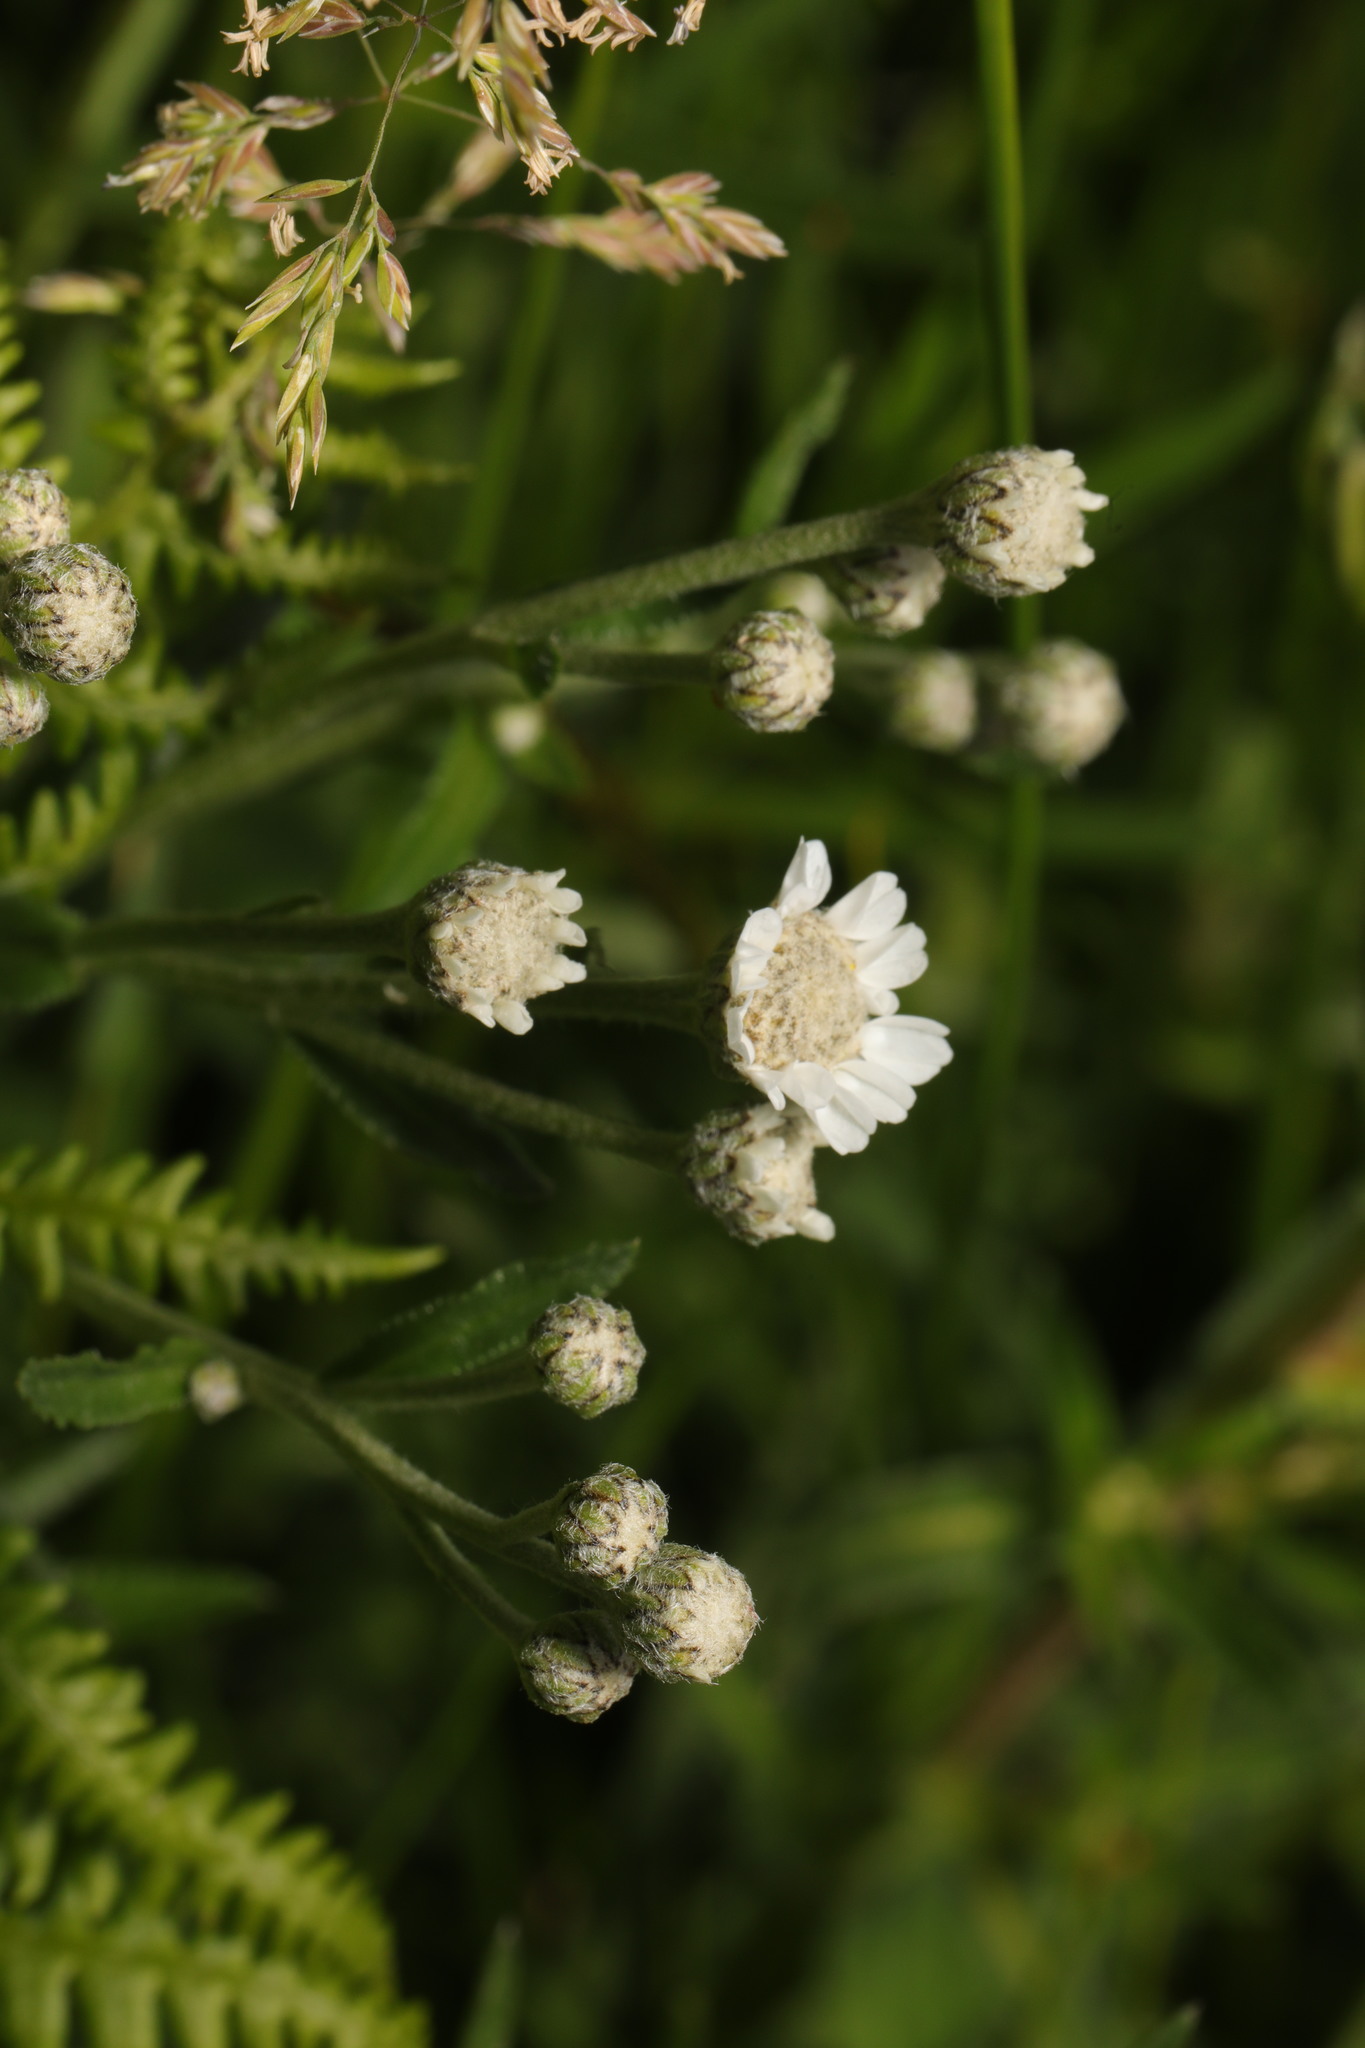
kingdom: Plantae
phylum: Tracheophyta
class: Magnoliopsida
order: Asterales
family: Asteraceae
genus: Achillea
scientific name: Achillea ptarmica
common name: Sneezeweed
